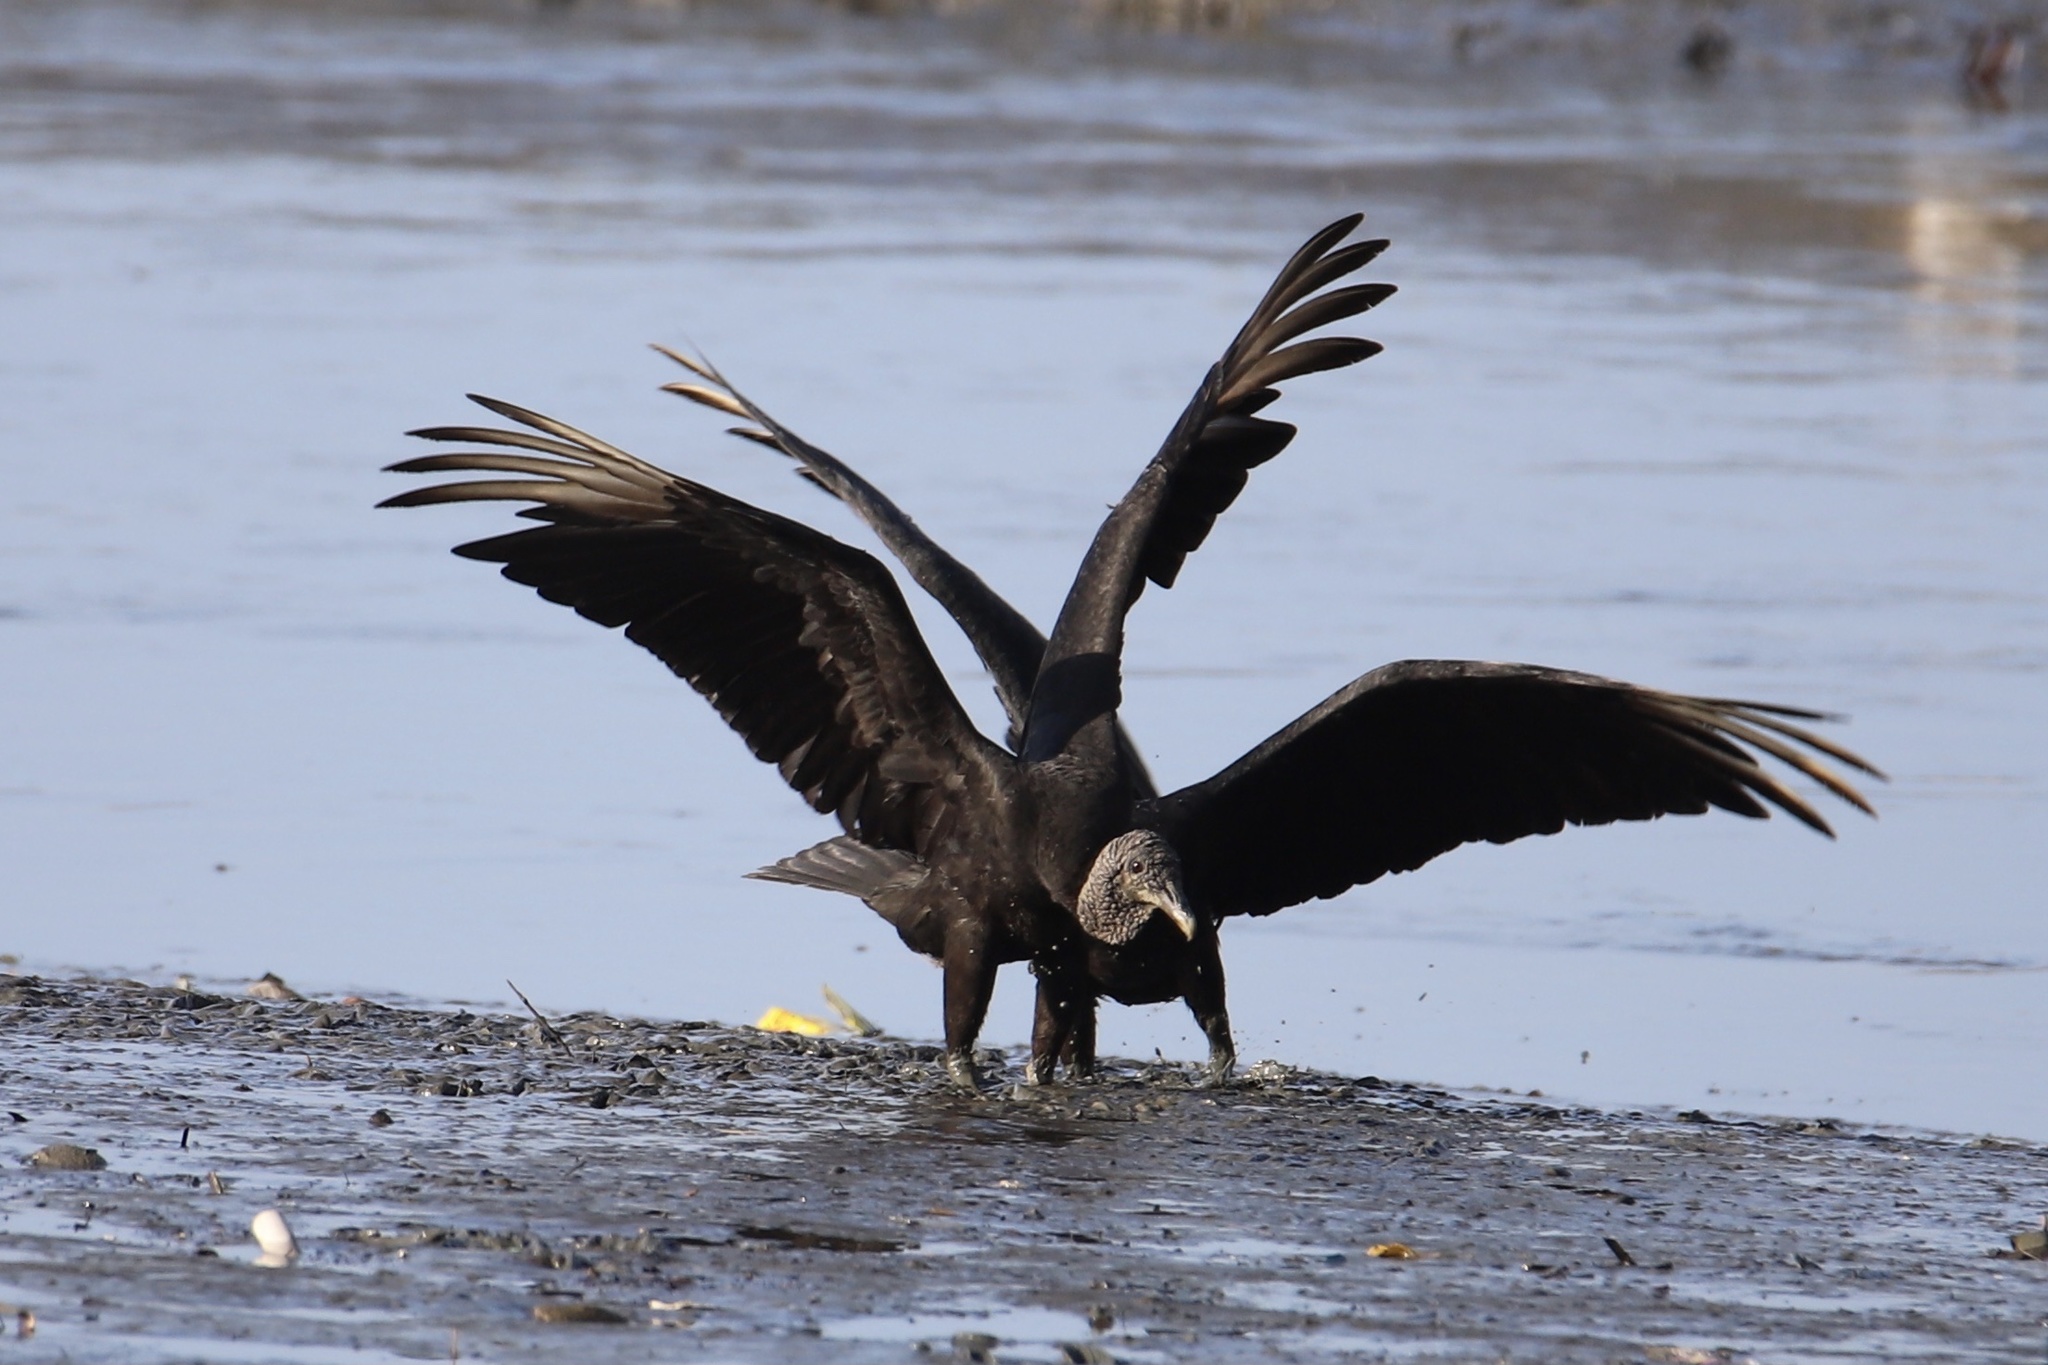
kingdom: Animalia
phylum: Chordata
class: Aves
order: Accipitriformes
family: Cathartidae
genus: Coragyps
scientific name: Coragyps atratus
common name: Black vulture
